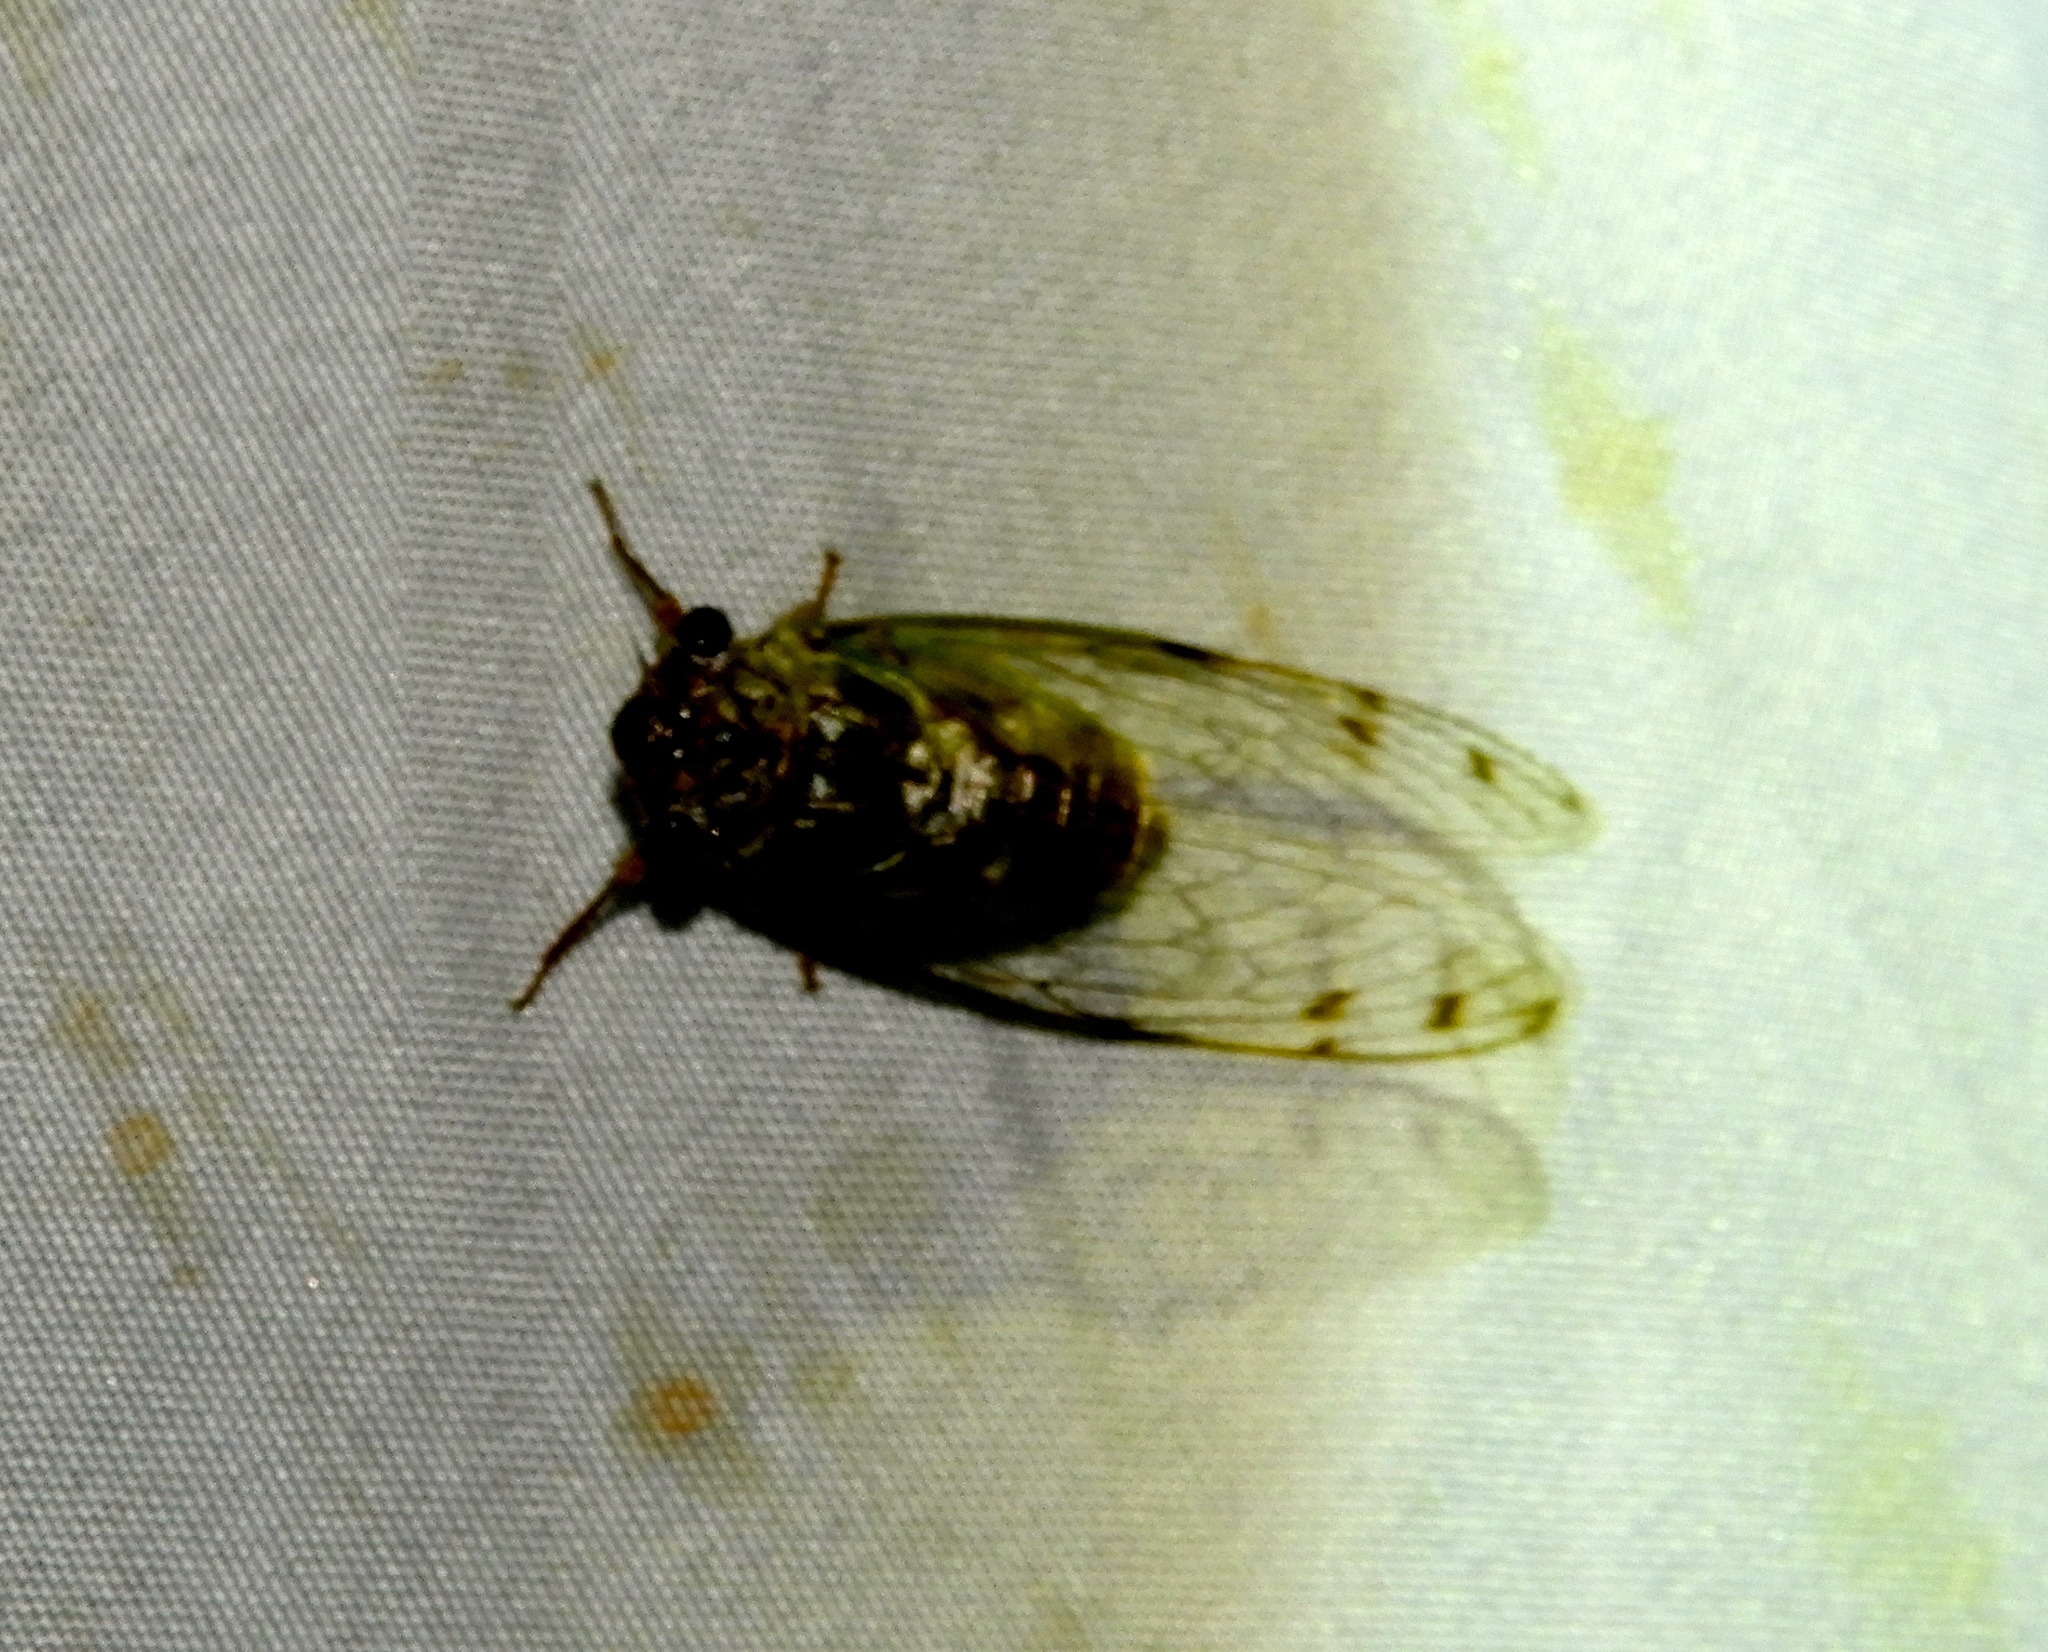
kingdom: Animalia
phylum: Arthropoda
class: Insecta
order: Hemiptera
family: Cicadidae
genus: Diceroprocta
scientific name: Diceroprocta tepicana
